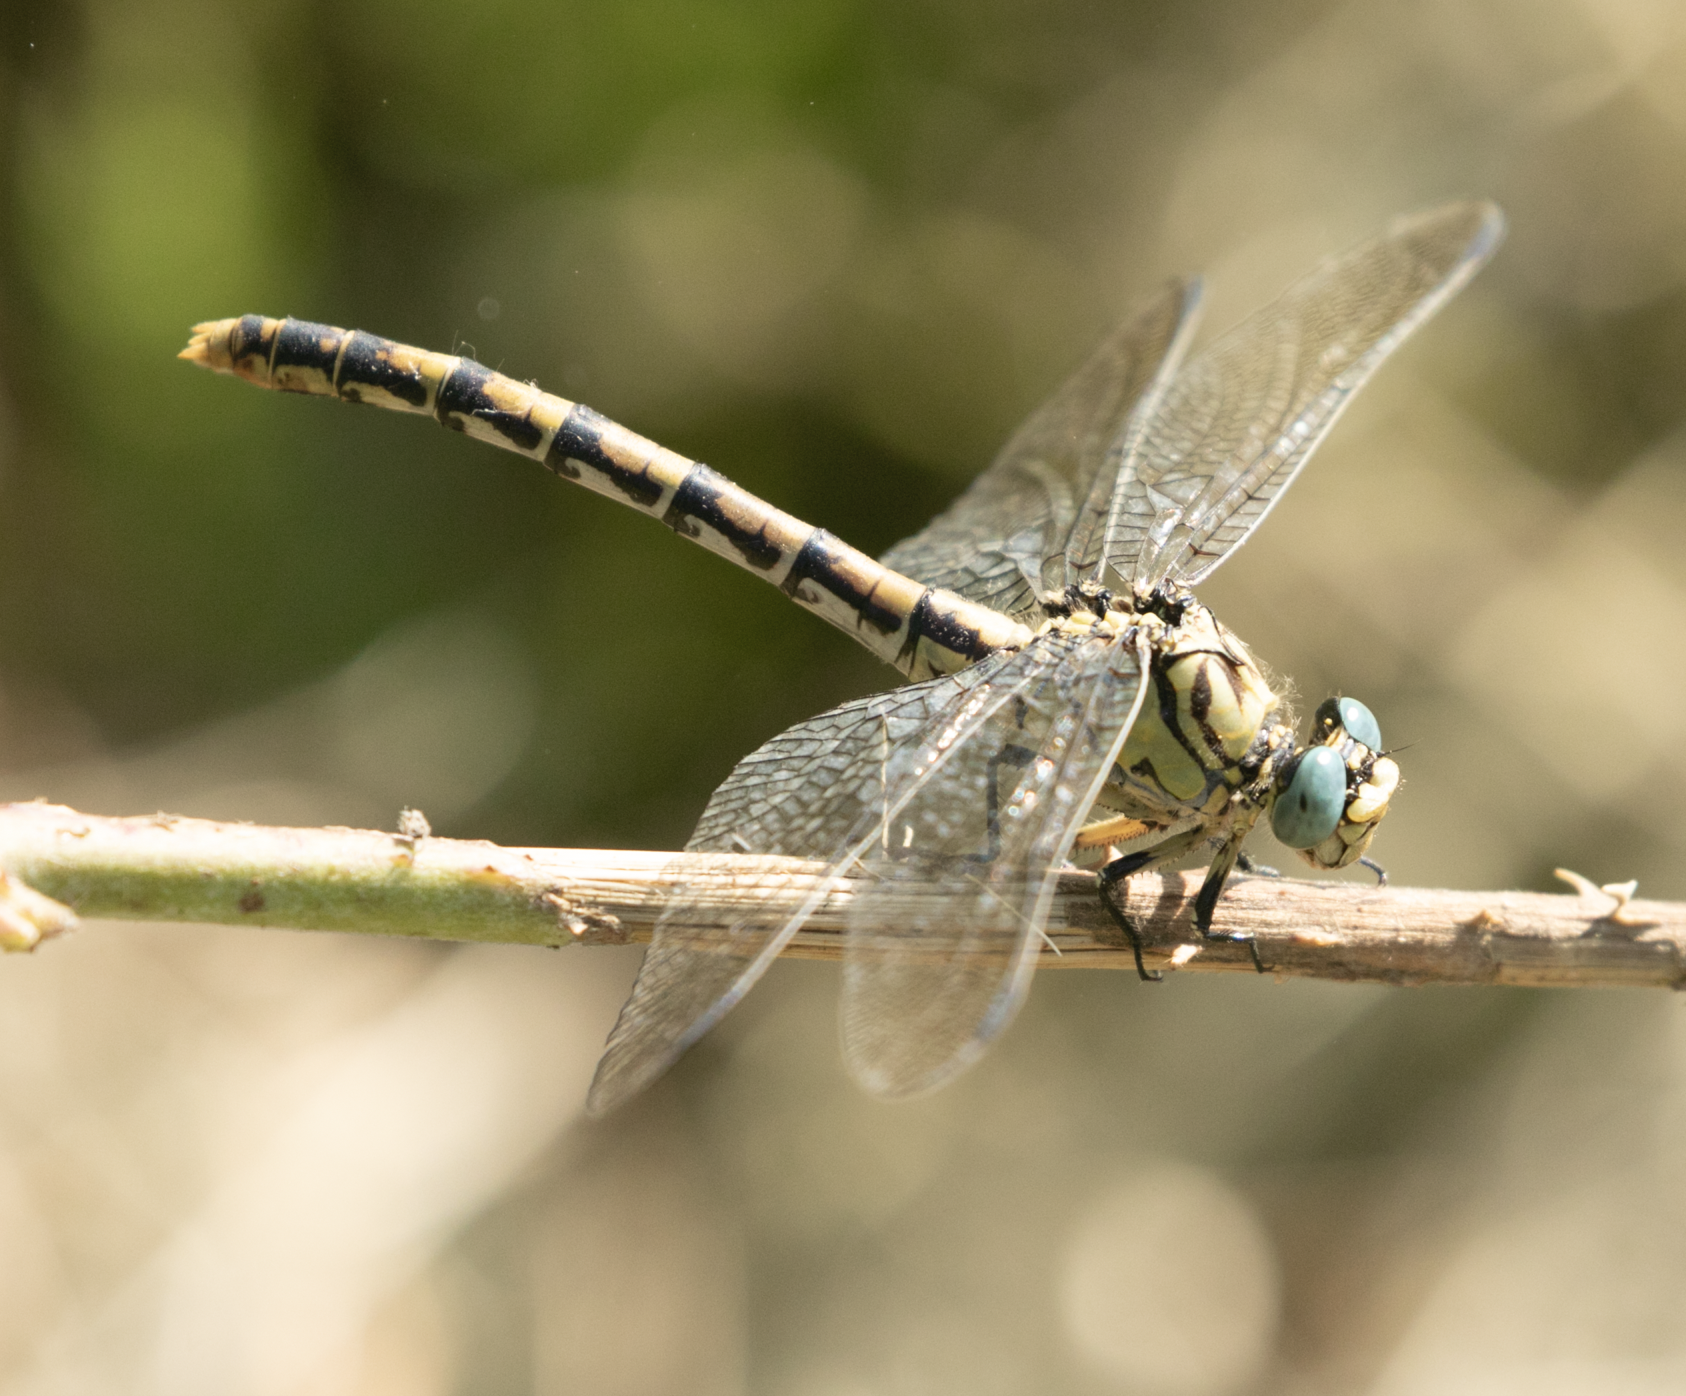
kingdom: Animalia
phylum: Arthropoda
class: Insecta
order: Odonata
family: Gomphidae
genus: Onychogomphus
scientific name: Onychogomphus forcipatus
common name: Small pincertail
